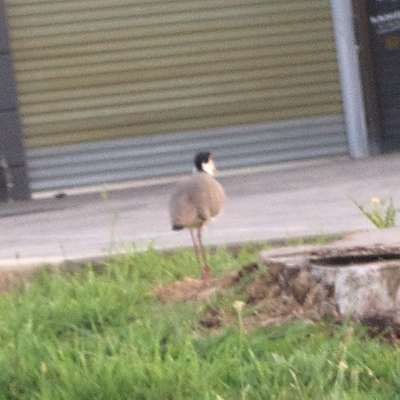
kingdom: Animalia
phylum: Chordata
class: Aves
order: Charadriiformes
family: Charadriidae
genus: Vanellus
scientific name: Vanellus miles
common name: Masked lapwing
